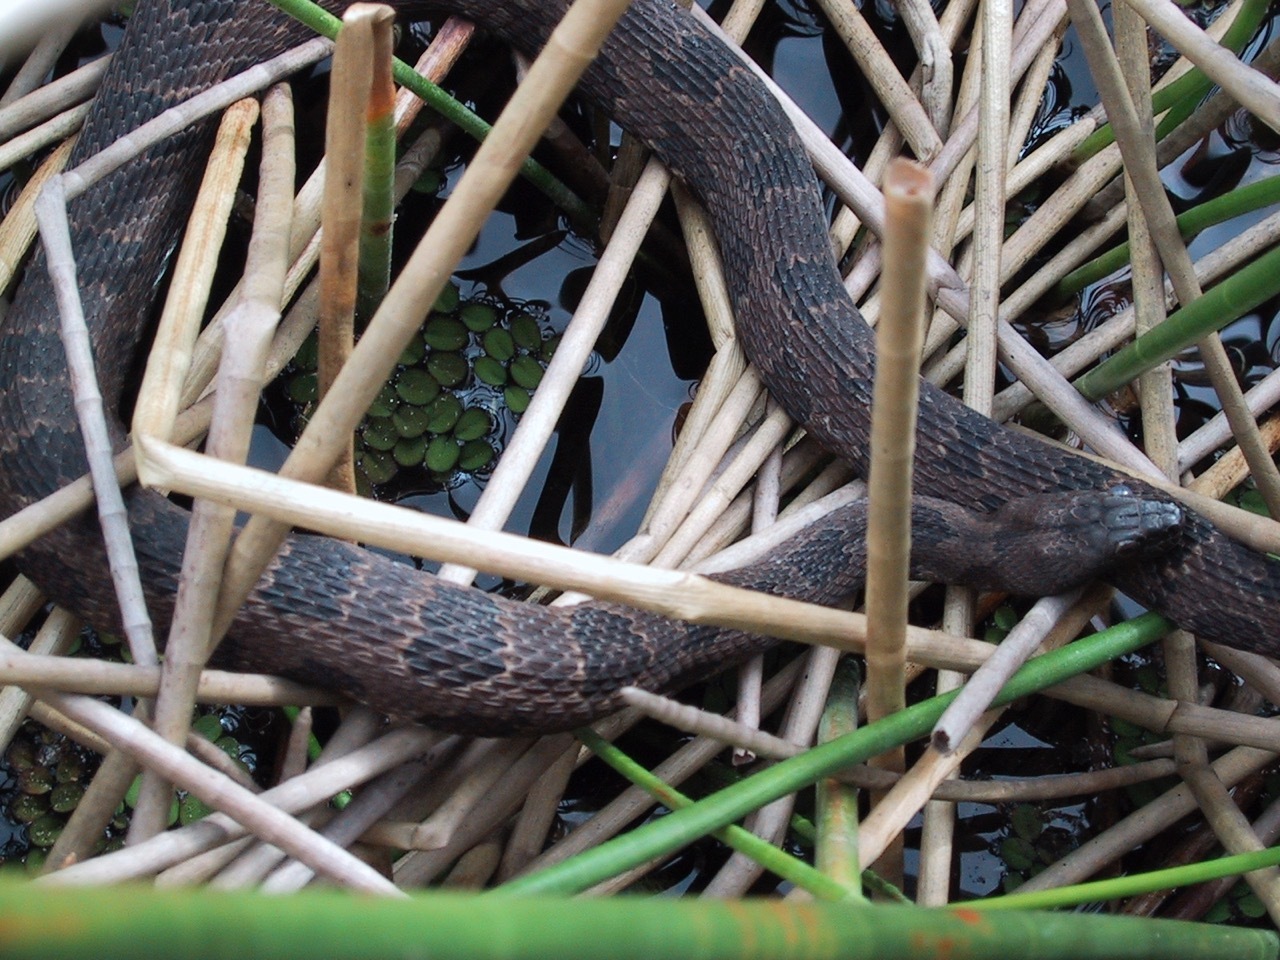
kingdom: Animalia
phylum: Chordata
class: Squamata
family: Colubridae
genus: Nerodia
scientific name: Nerodia taxispilota
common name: Brown water snake
